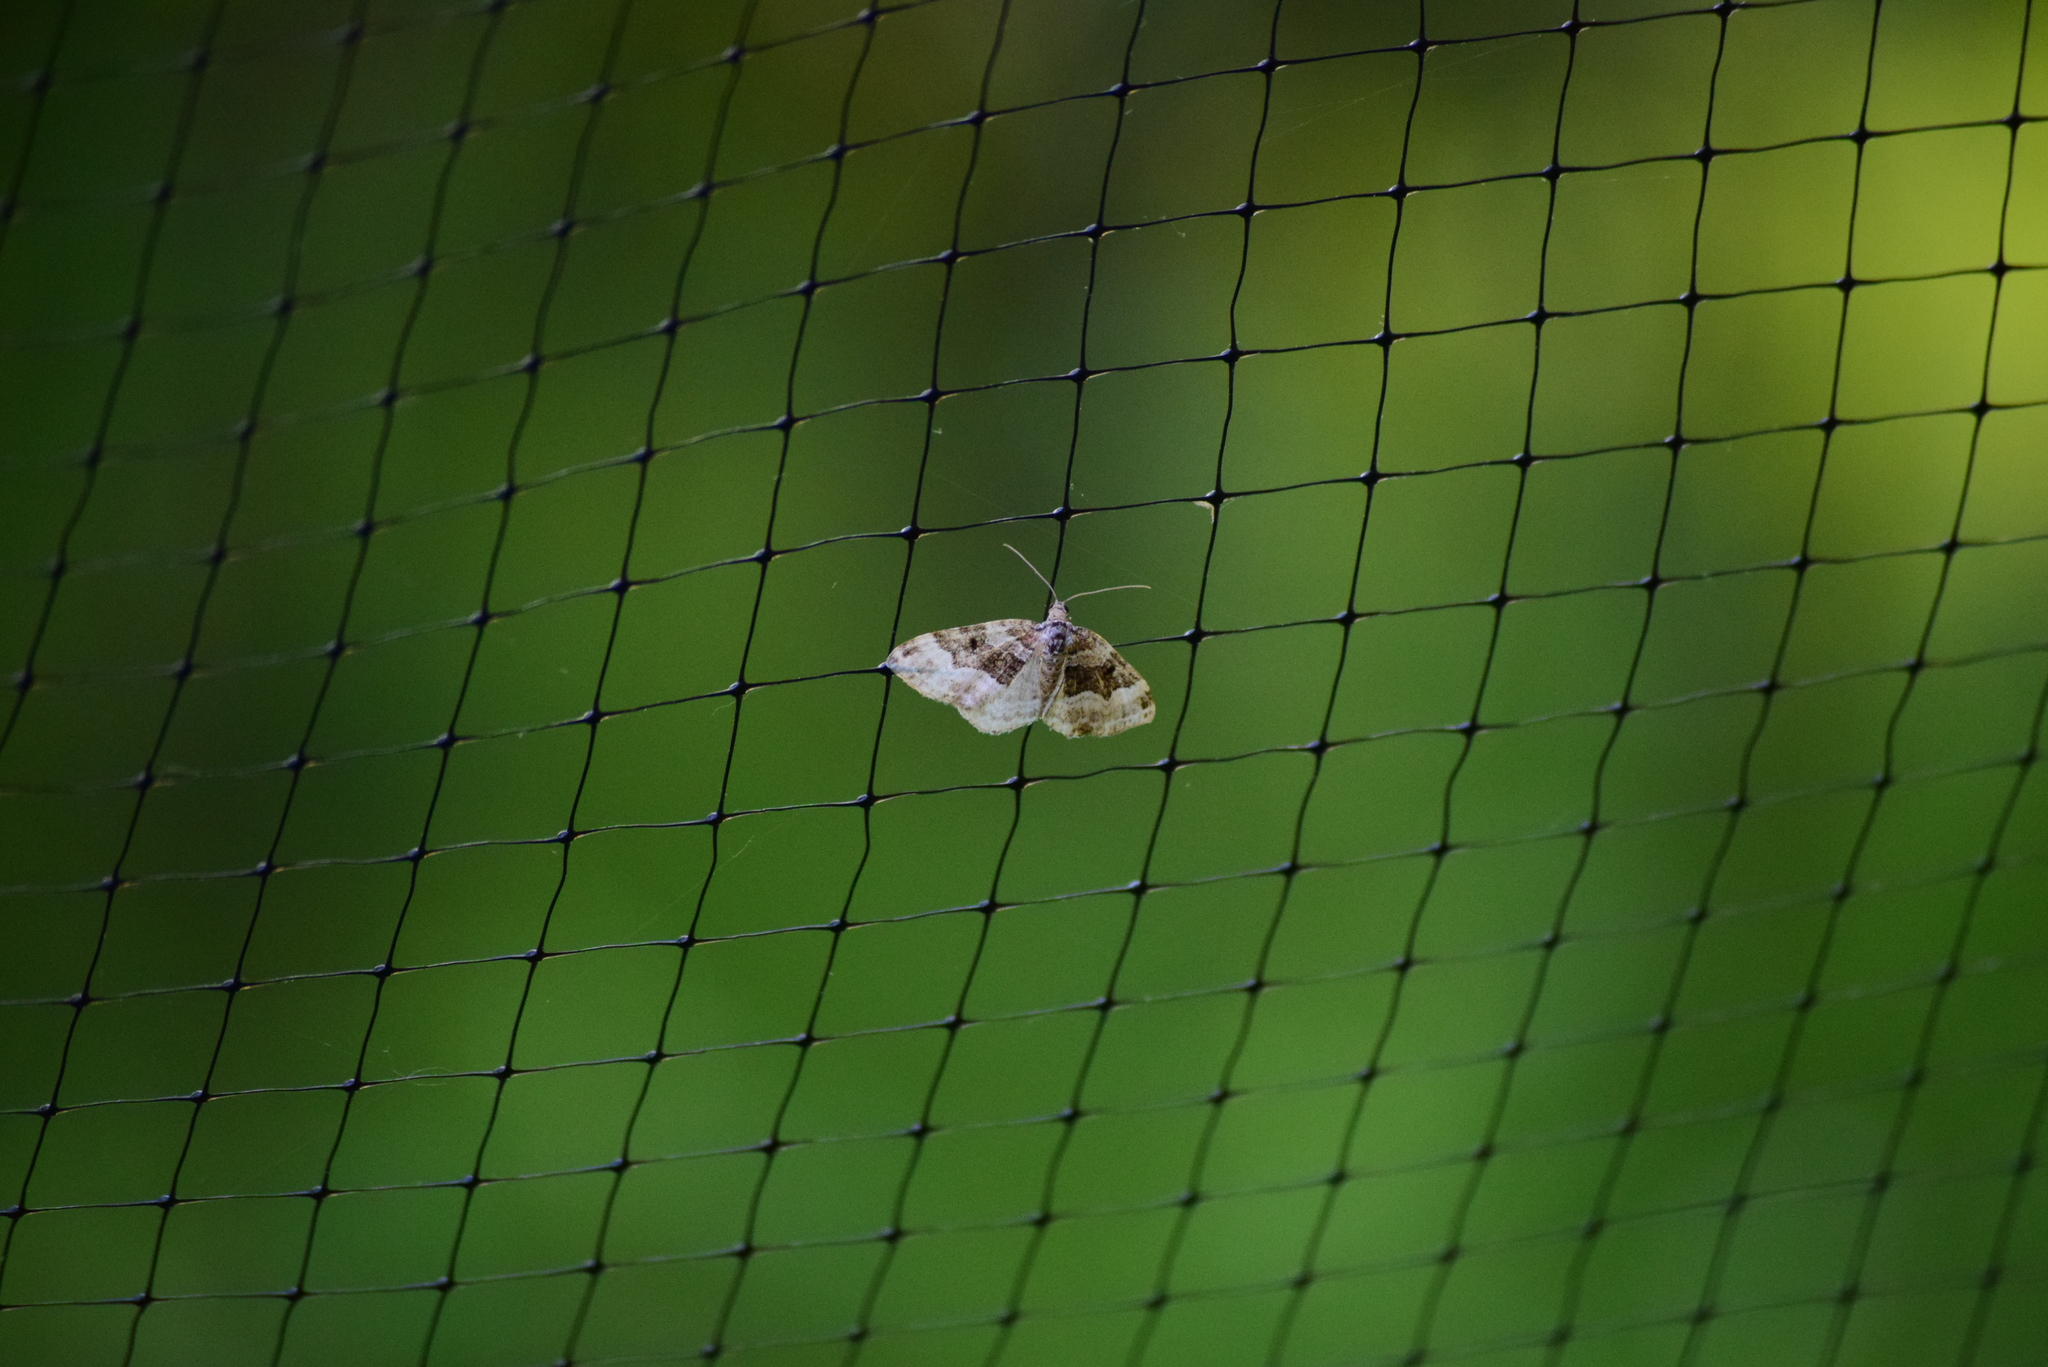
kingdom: Animalia
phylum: Arthropoda
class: Insecta
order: Lepidoptera
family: Geometridae
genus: Epirrhoe
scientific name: Epirrhoe alternata
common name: Common carpet
